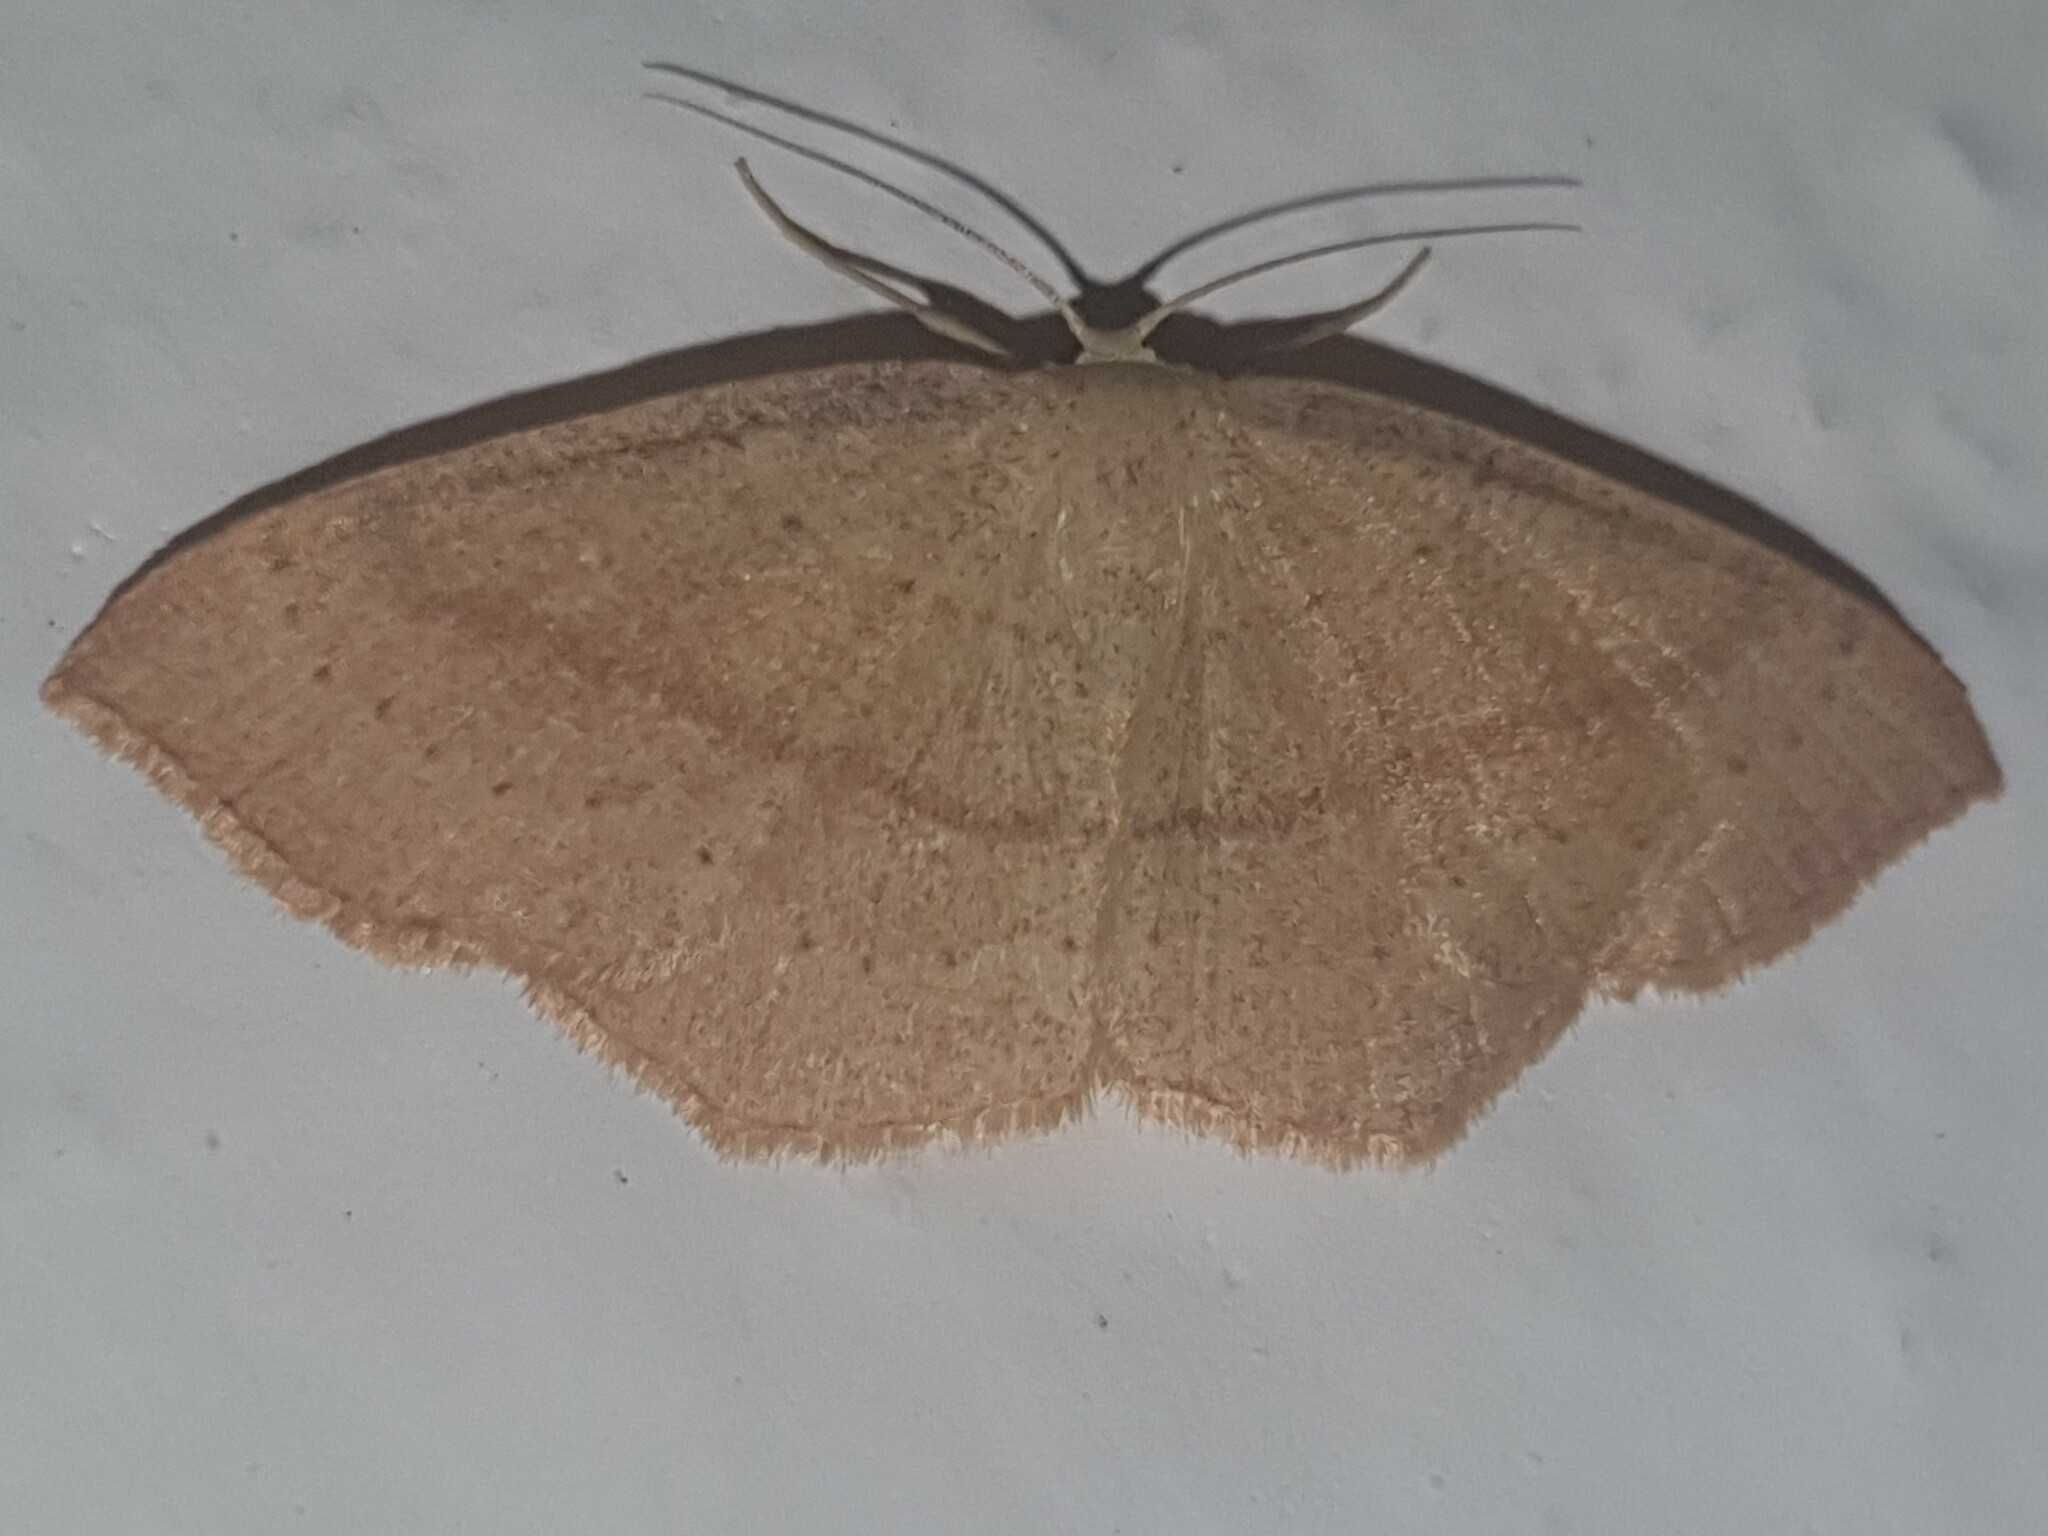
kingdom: Animalia
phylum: Arthropoda
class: Insecta
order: Lepidoptera
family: Geometridae
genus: Cyclophora
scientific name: Cyclophora linearia
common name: Clay triple-lines
